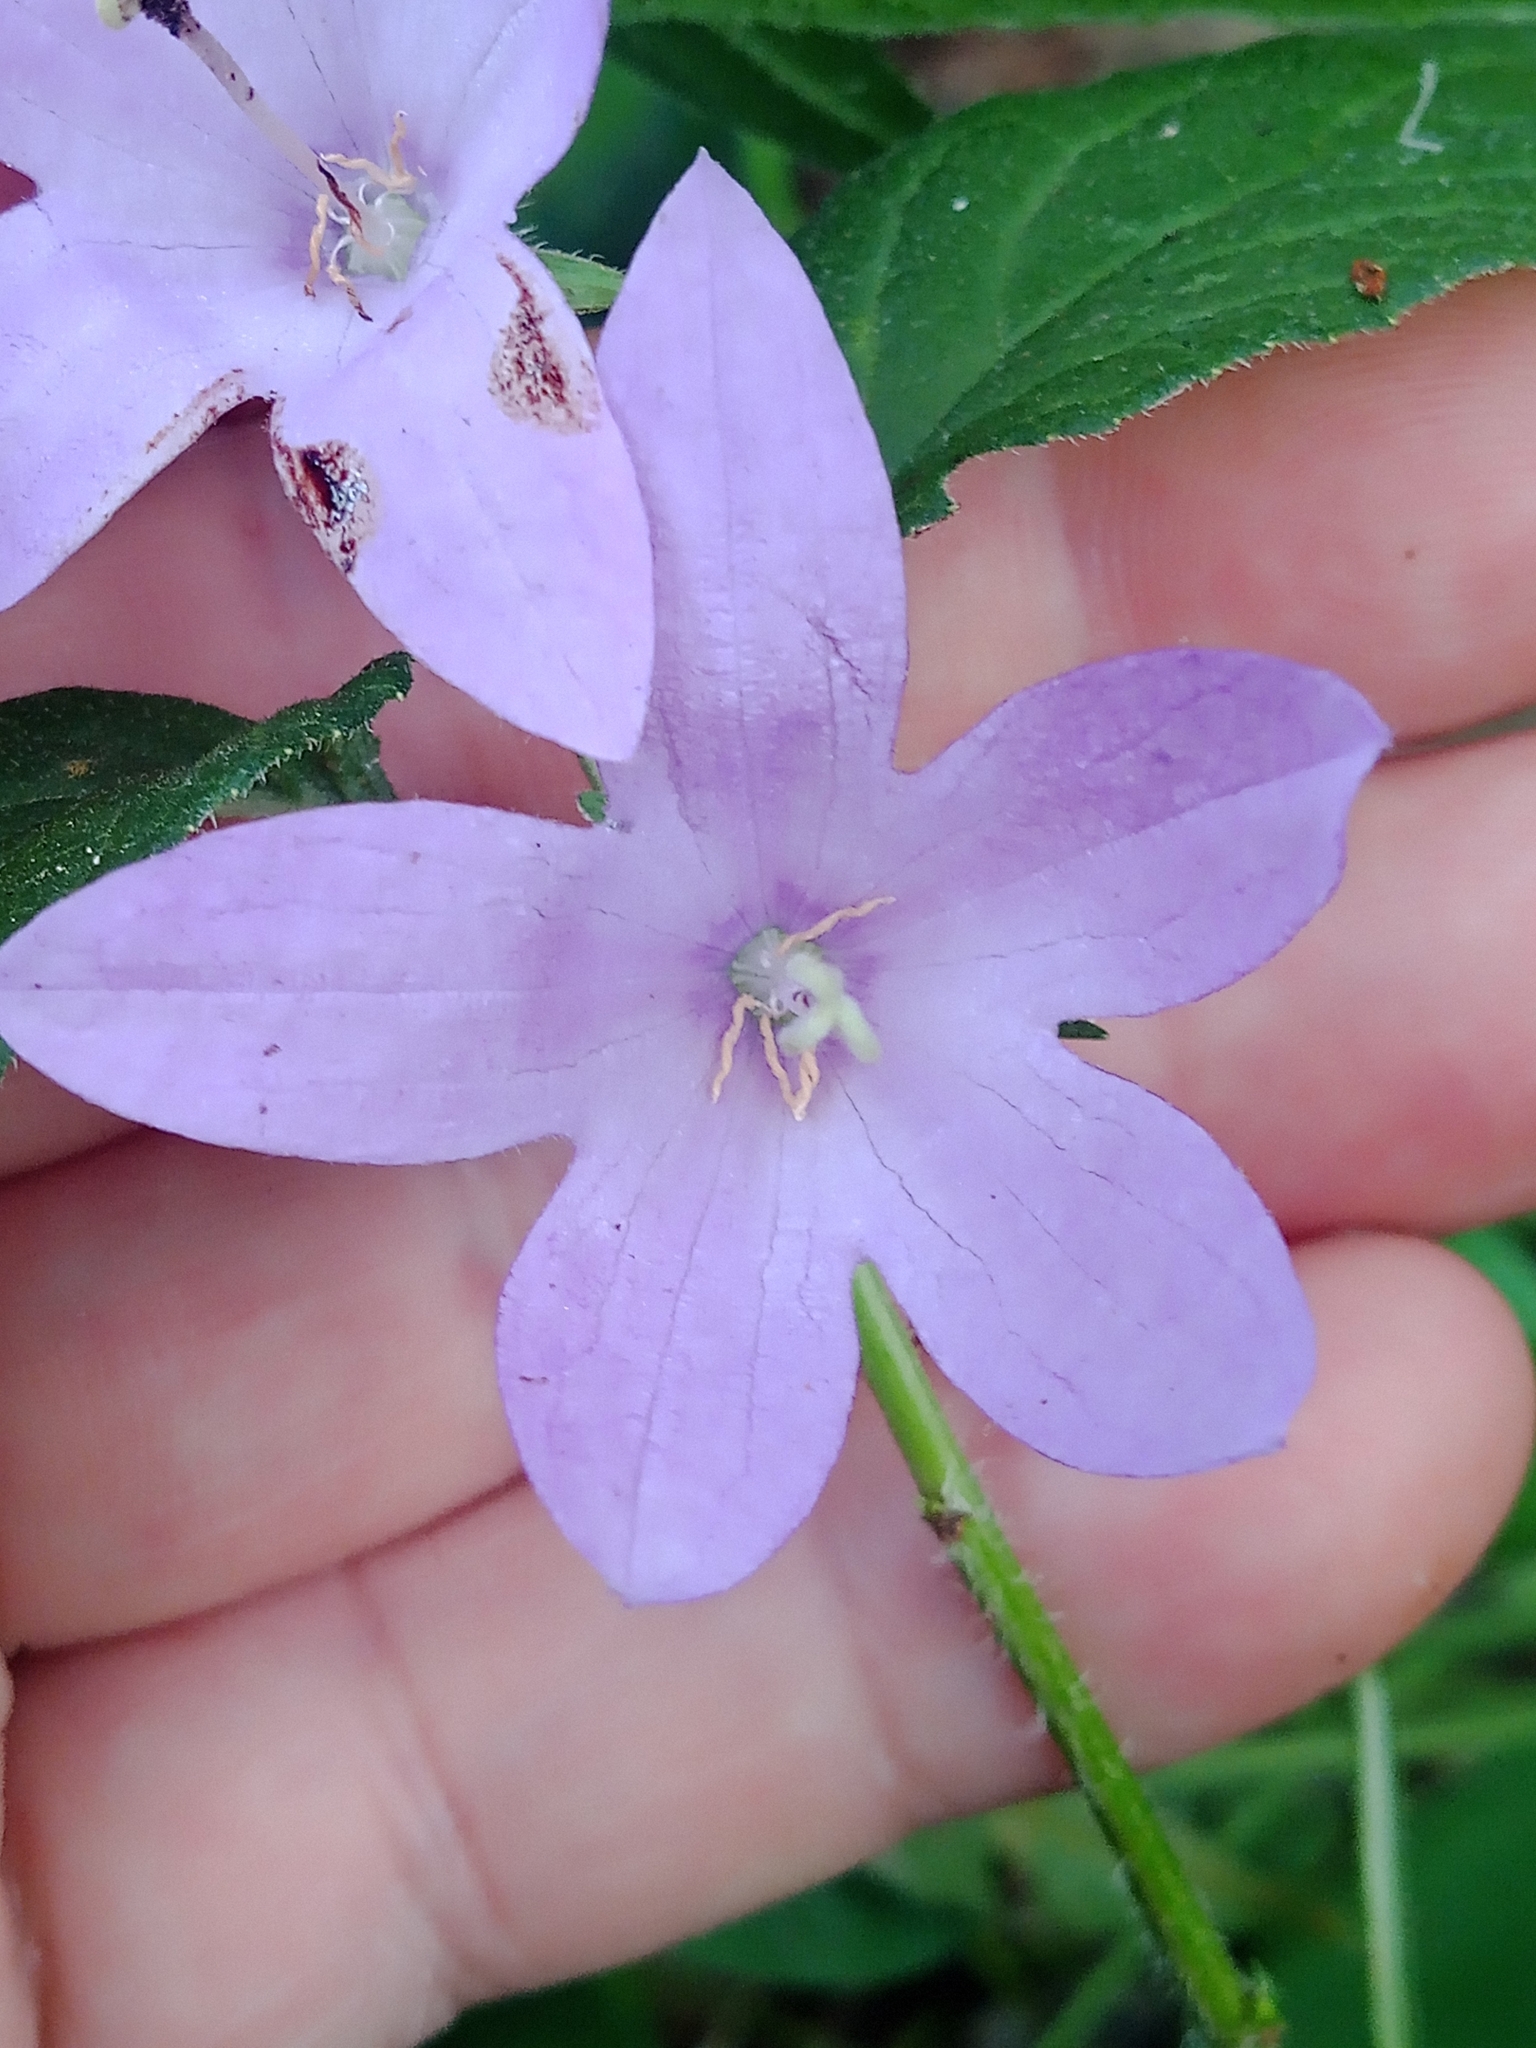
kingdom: Plantae
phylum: Tracheophyta
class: Magnoliopsida
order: Asterales
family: Campanulaceae
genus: Campanula
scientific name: Campanula rapunculoides
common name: Creeping bellflower
